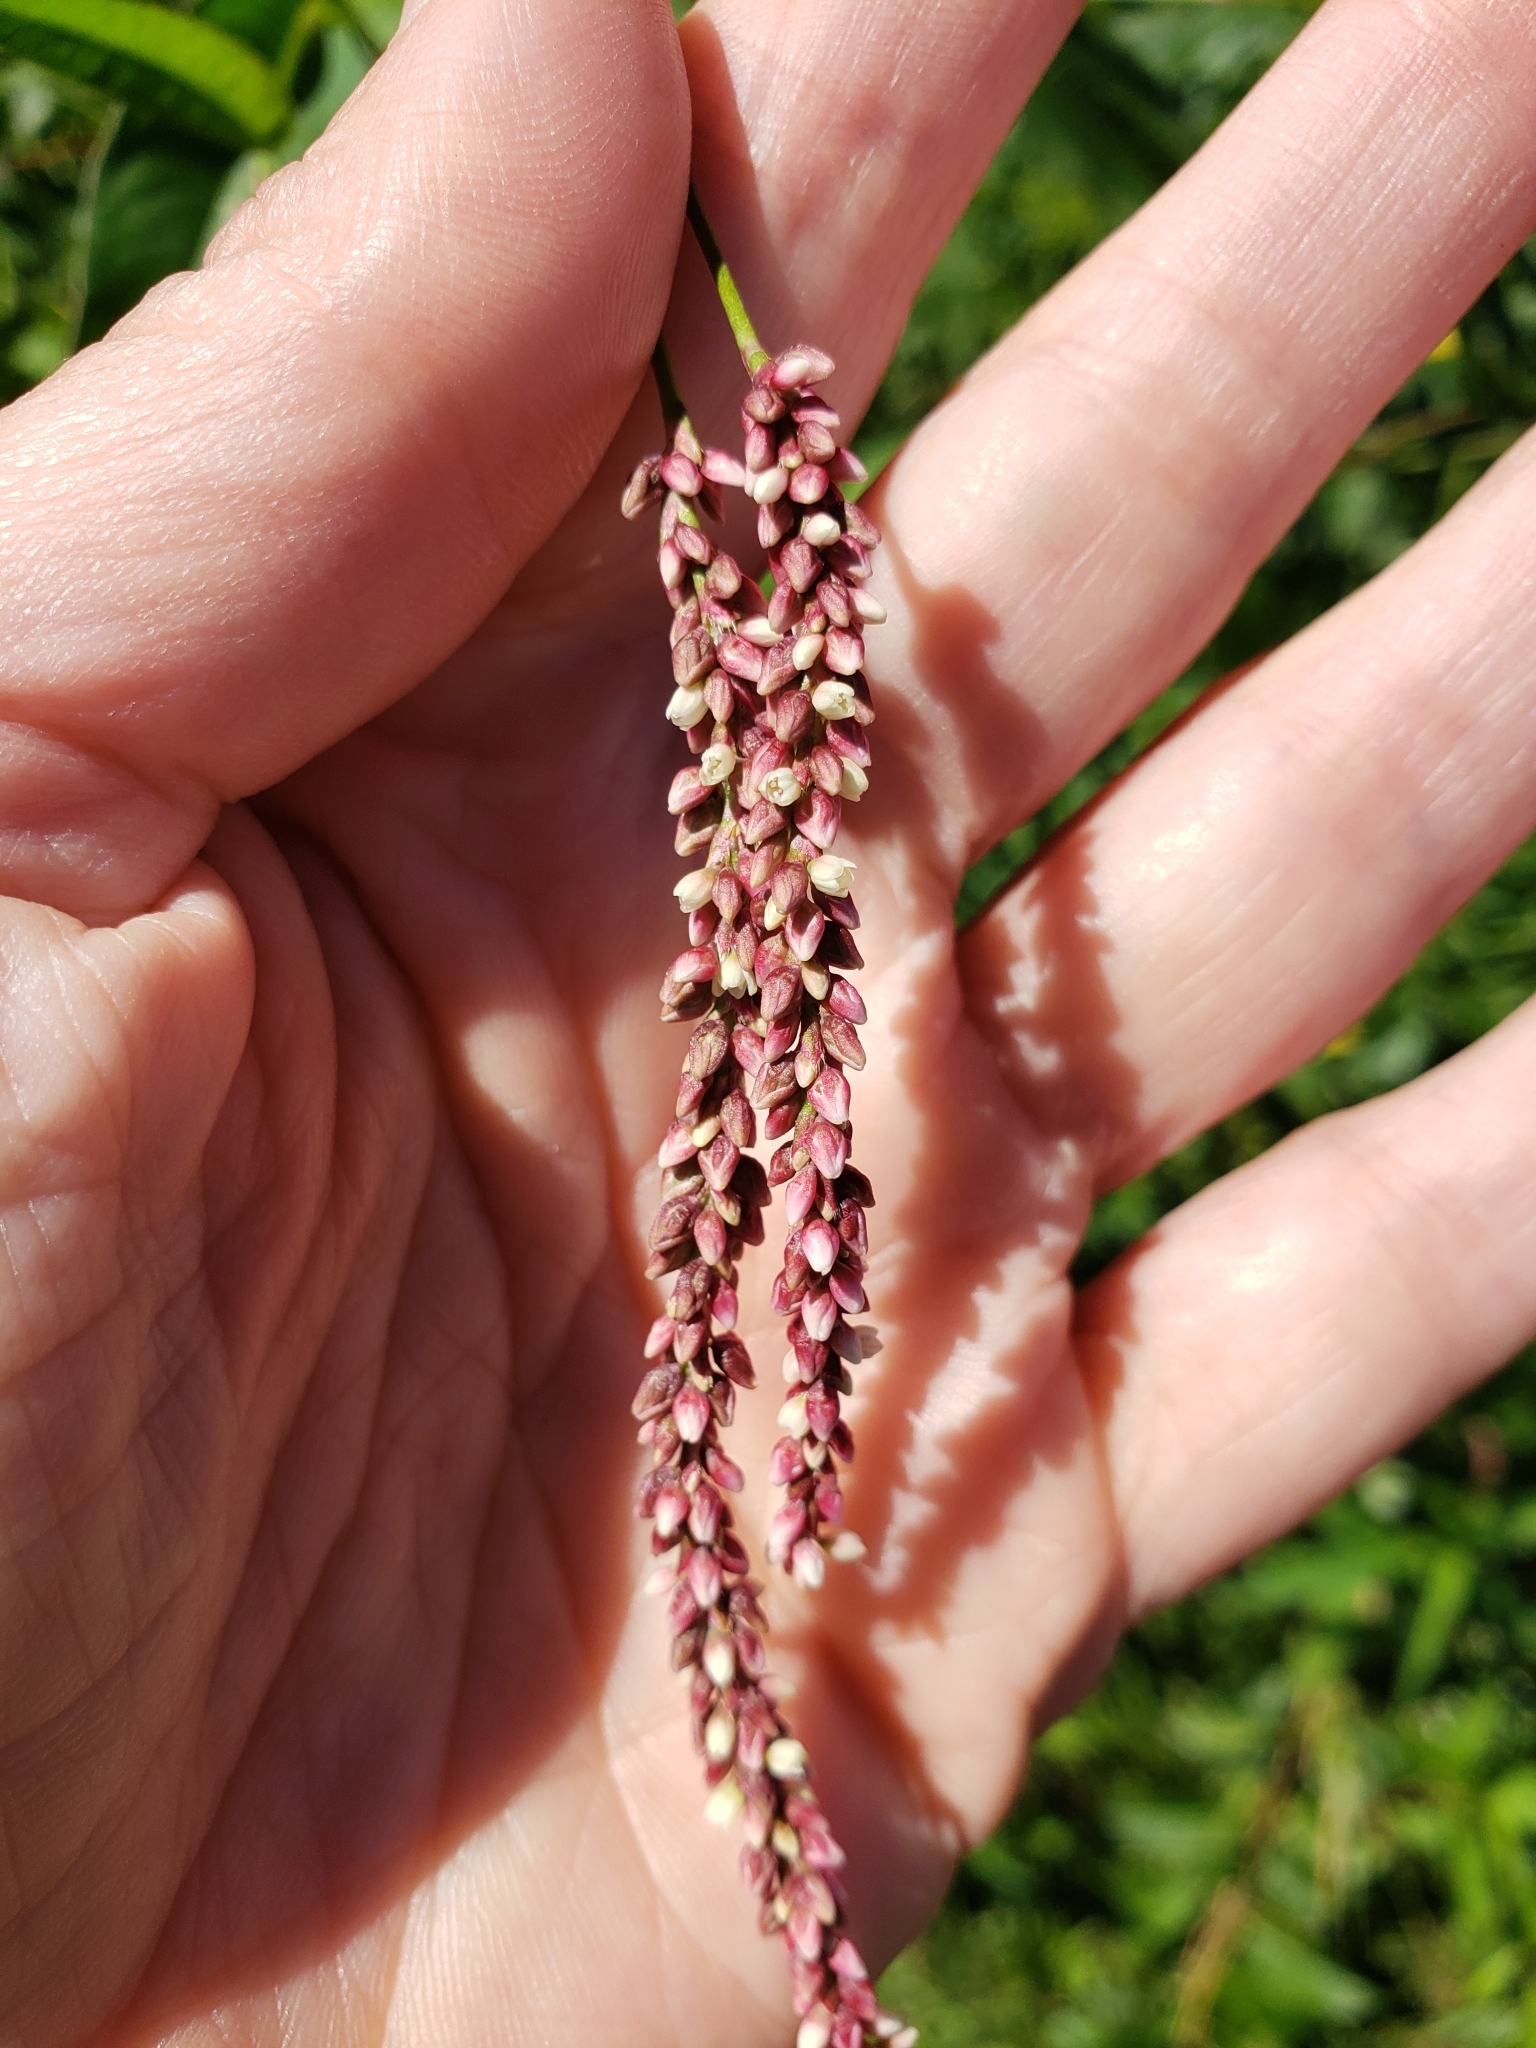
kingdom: Plantae
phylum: Tracheophyta
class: Magnoliopsida
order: Caryophyllales
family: Polygonaceae
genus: Persicaria
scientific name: Persicaria extremiorientalis
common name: Far-eastern smartweed
